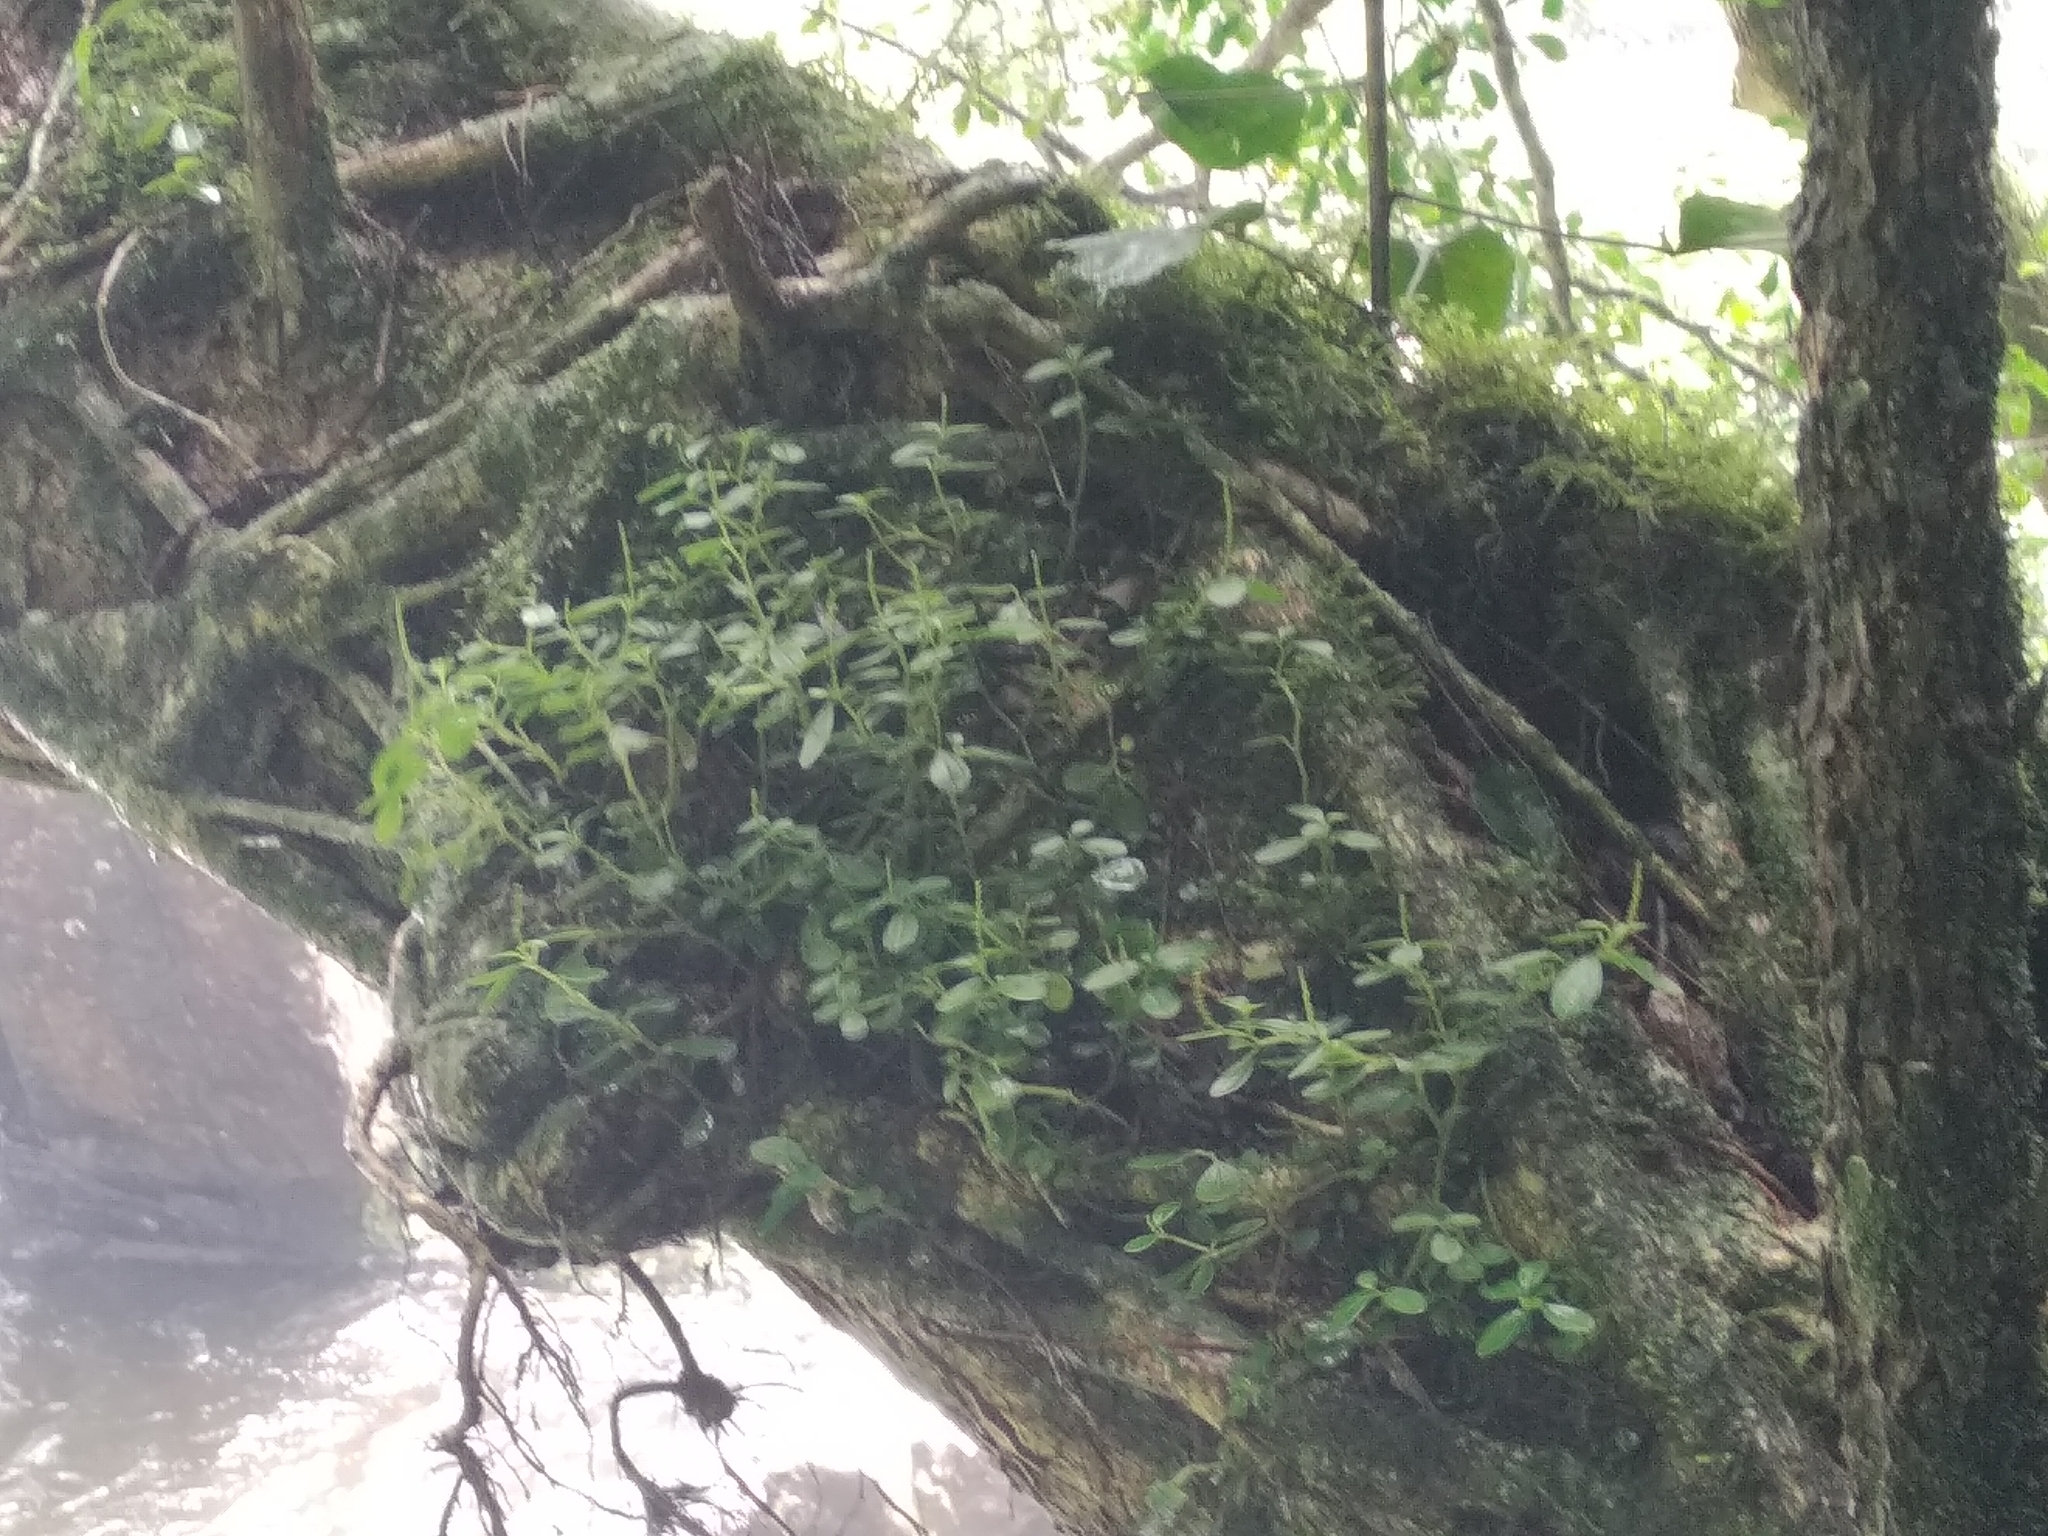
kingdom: Plantae
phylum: Tracheophyta
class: Magnoliopsida
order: Piperales
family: Piperaceae
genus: Peperomia
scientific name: Peperomia retusa
